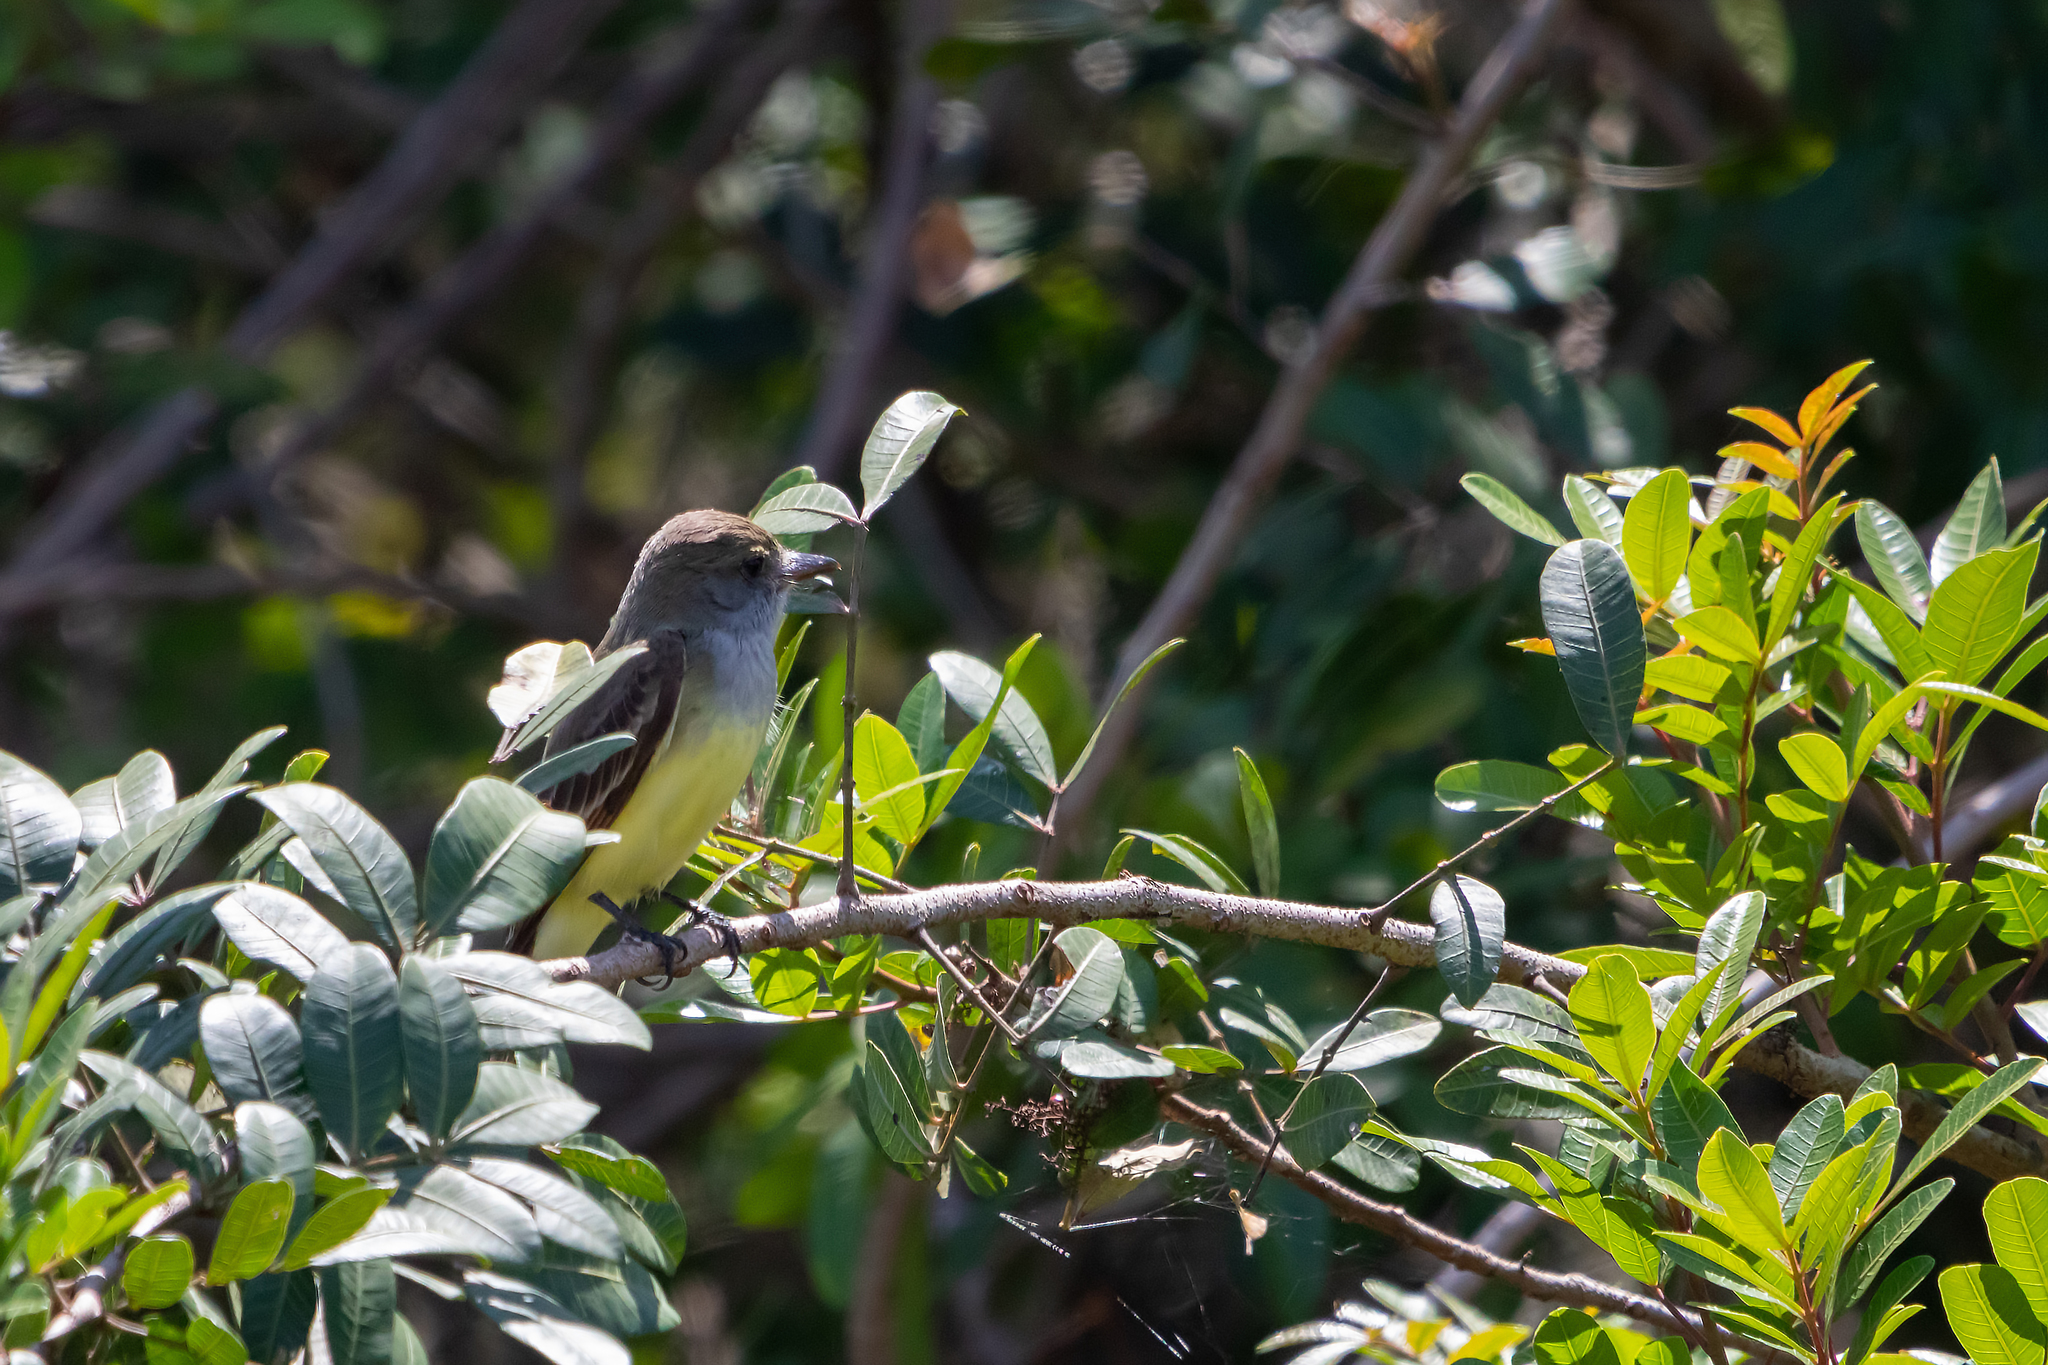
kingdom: Animalia
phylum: Chordata
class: Aves
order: Passeriformes
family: Tyrannidae
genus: Myiarchus
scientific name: Myiarchus crinitus
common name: Great crested flycatcher
